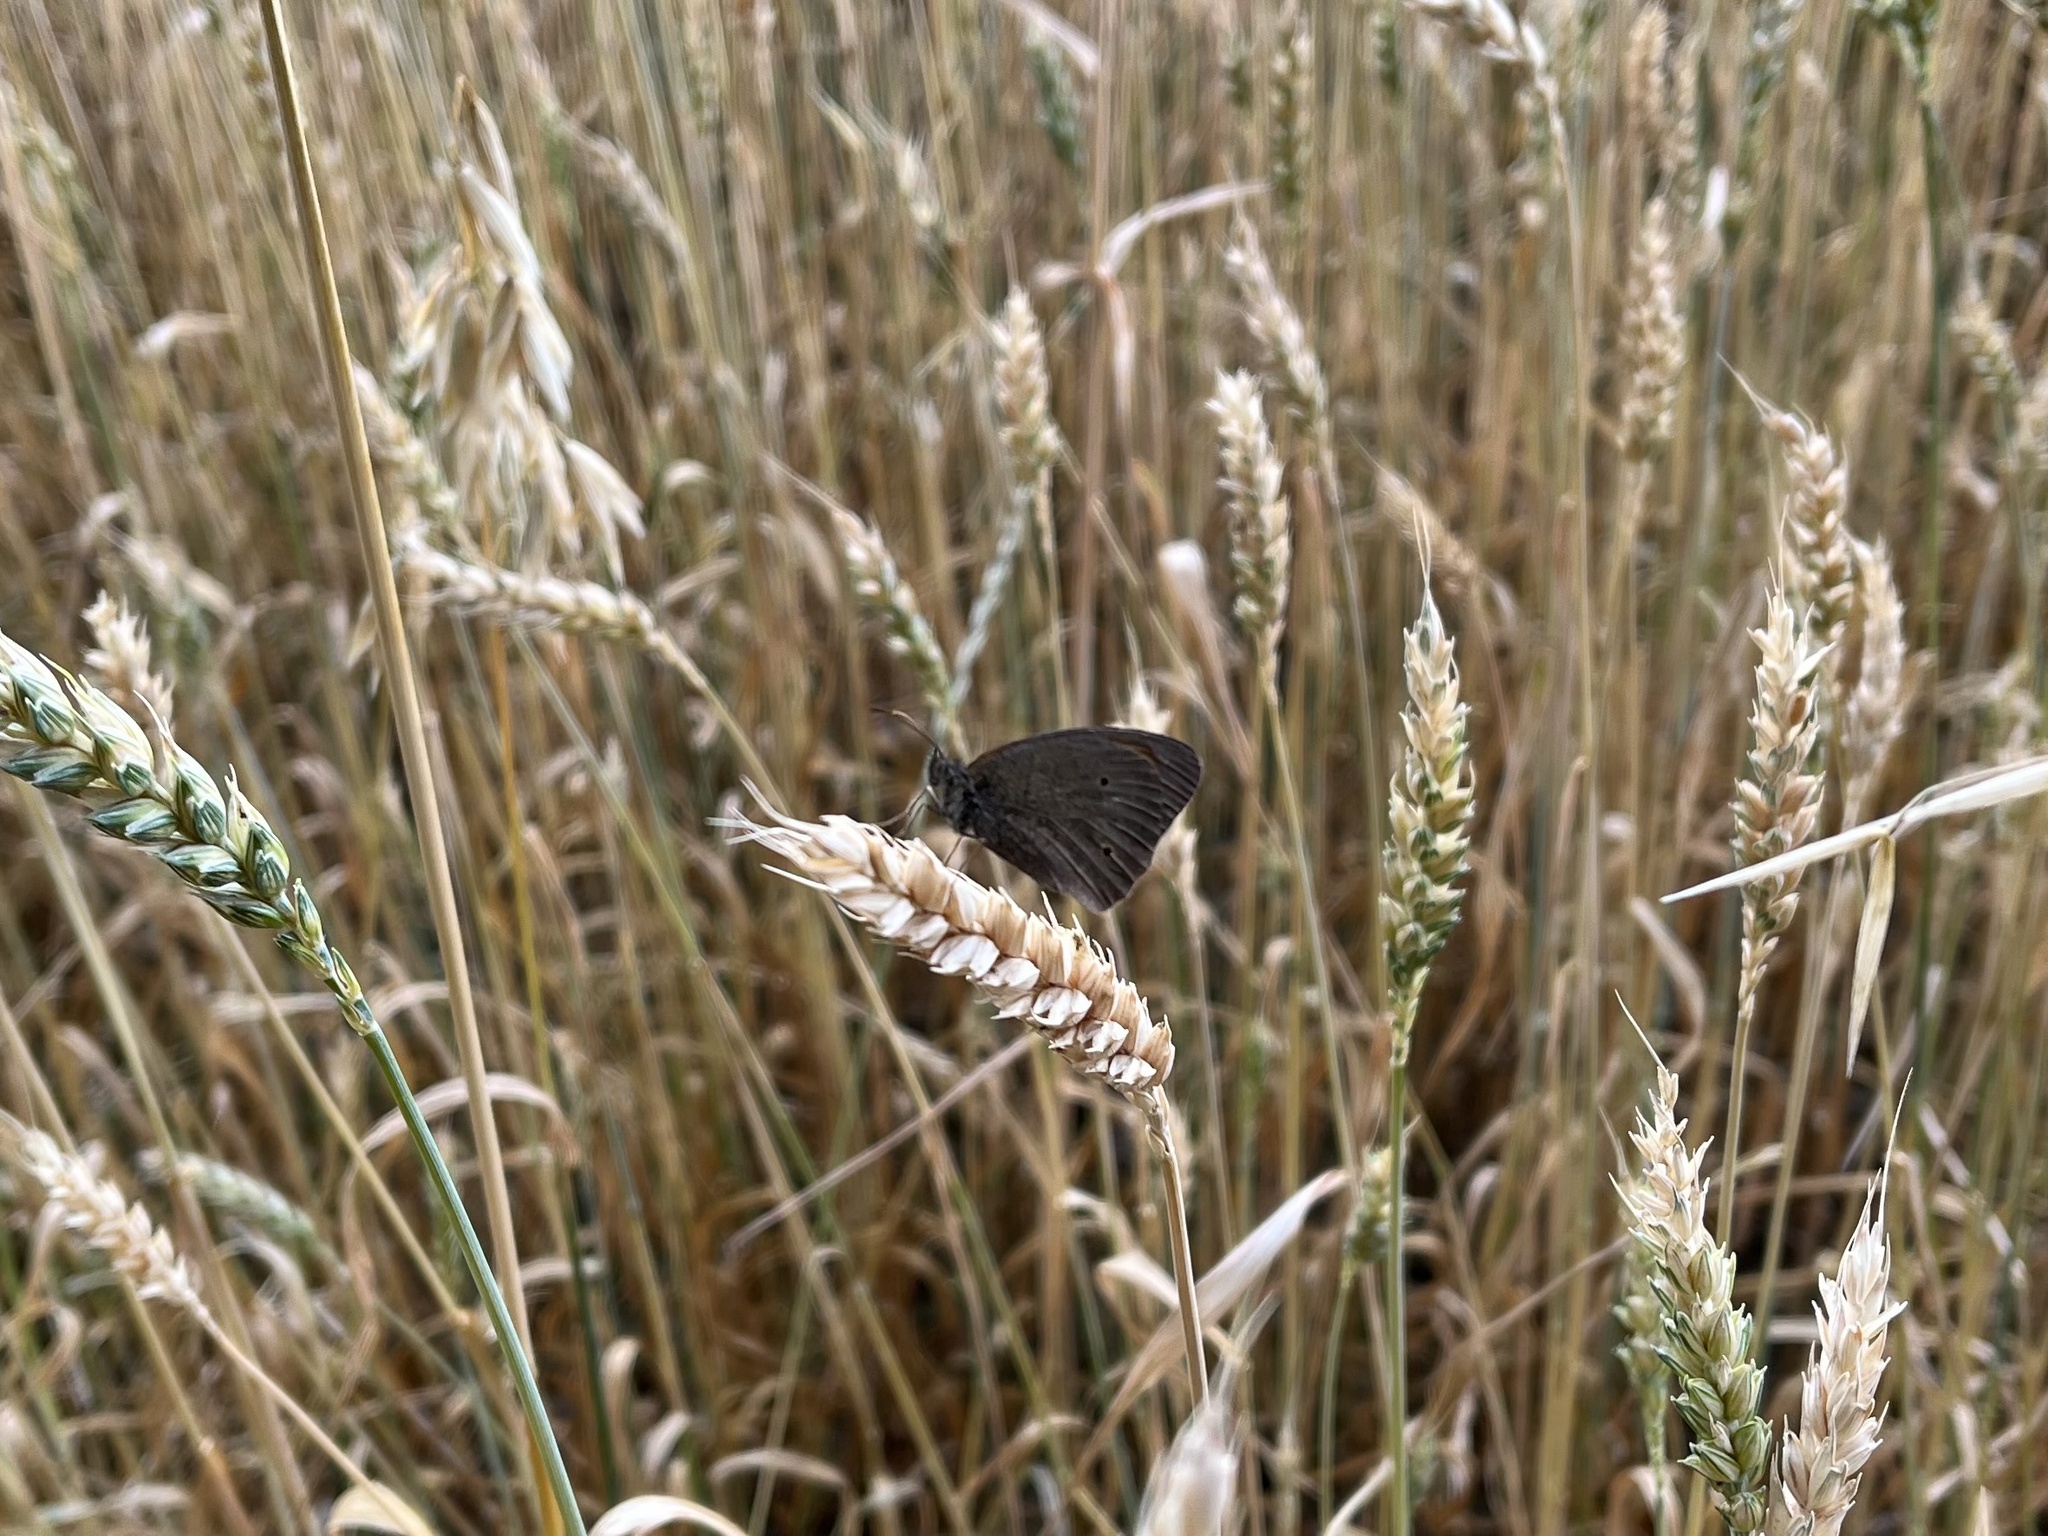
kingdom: Animalia
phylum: Arthropoda
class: Insecta
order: Lepidoptera
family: Nymphalidae
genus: Maniola
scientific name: Maniola jurtina
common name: Meadow brown
